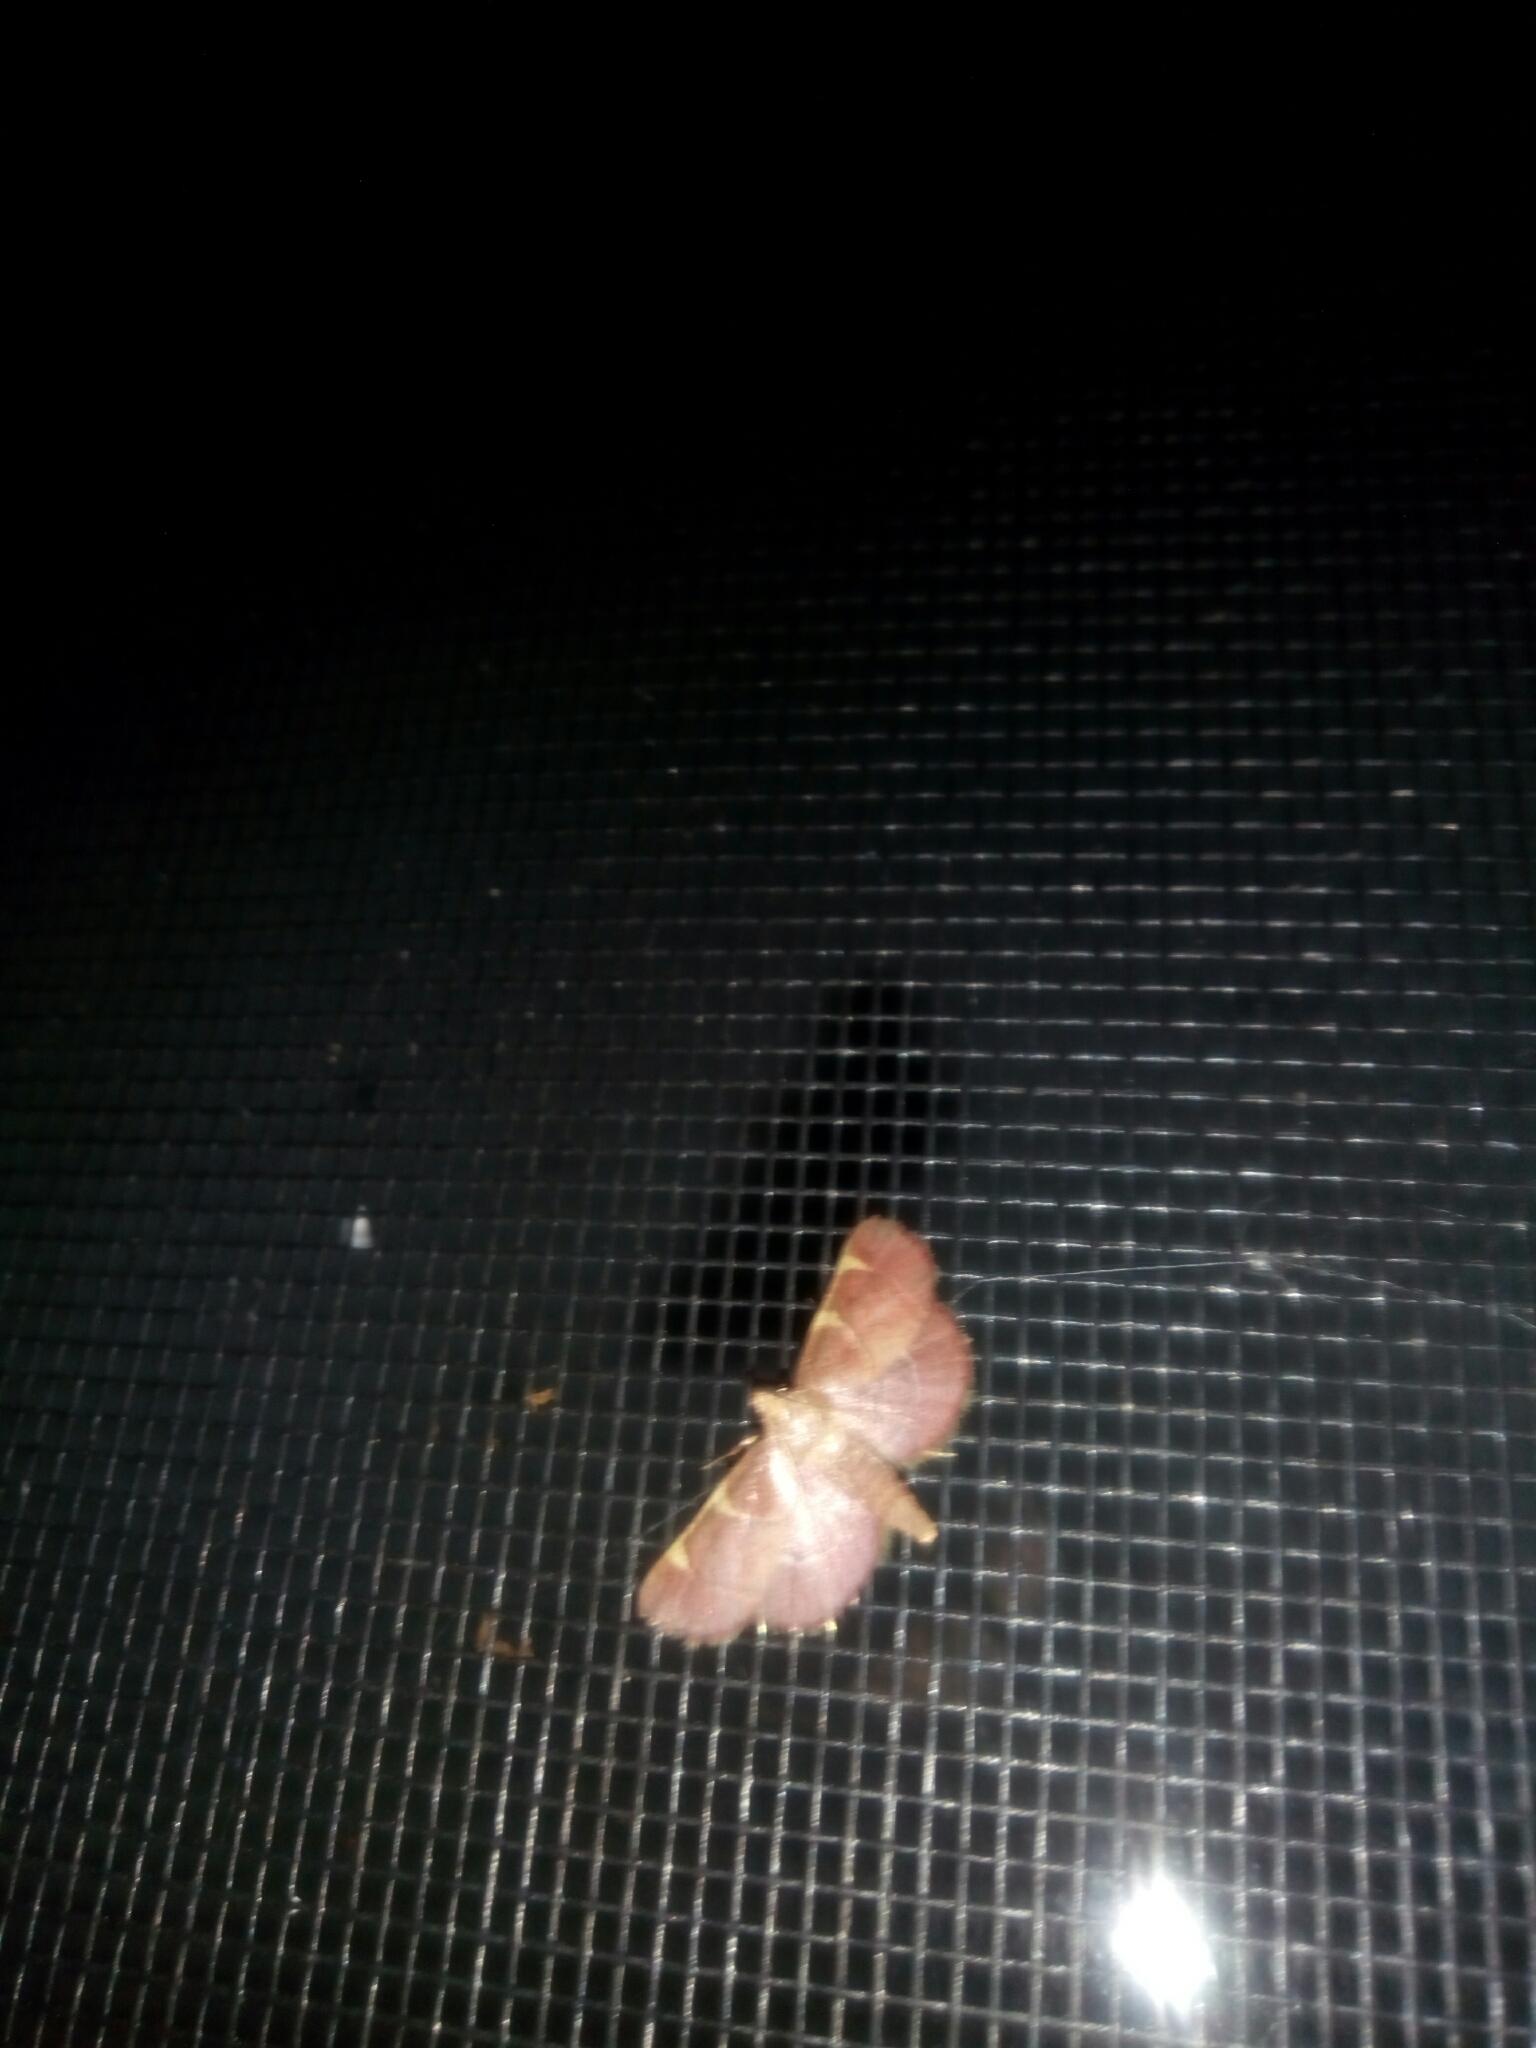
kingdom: Animalia
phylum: Arthropoda
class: Insecta
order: Lepidoptera
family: Pyralidae
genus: Hypsopygia
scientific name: Hypsopygia olinalis
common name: Yellow-fringed dolichomia moth
